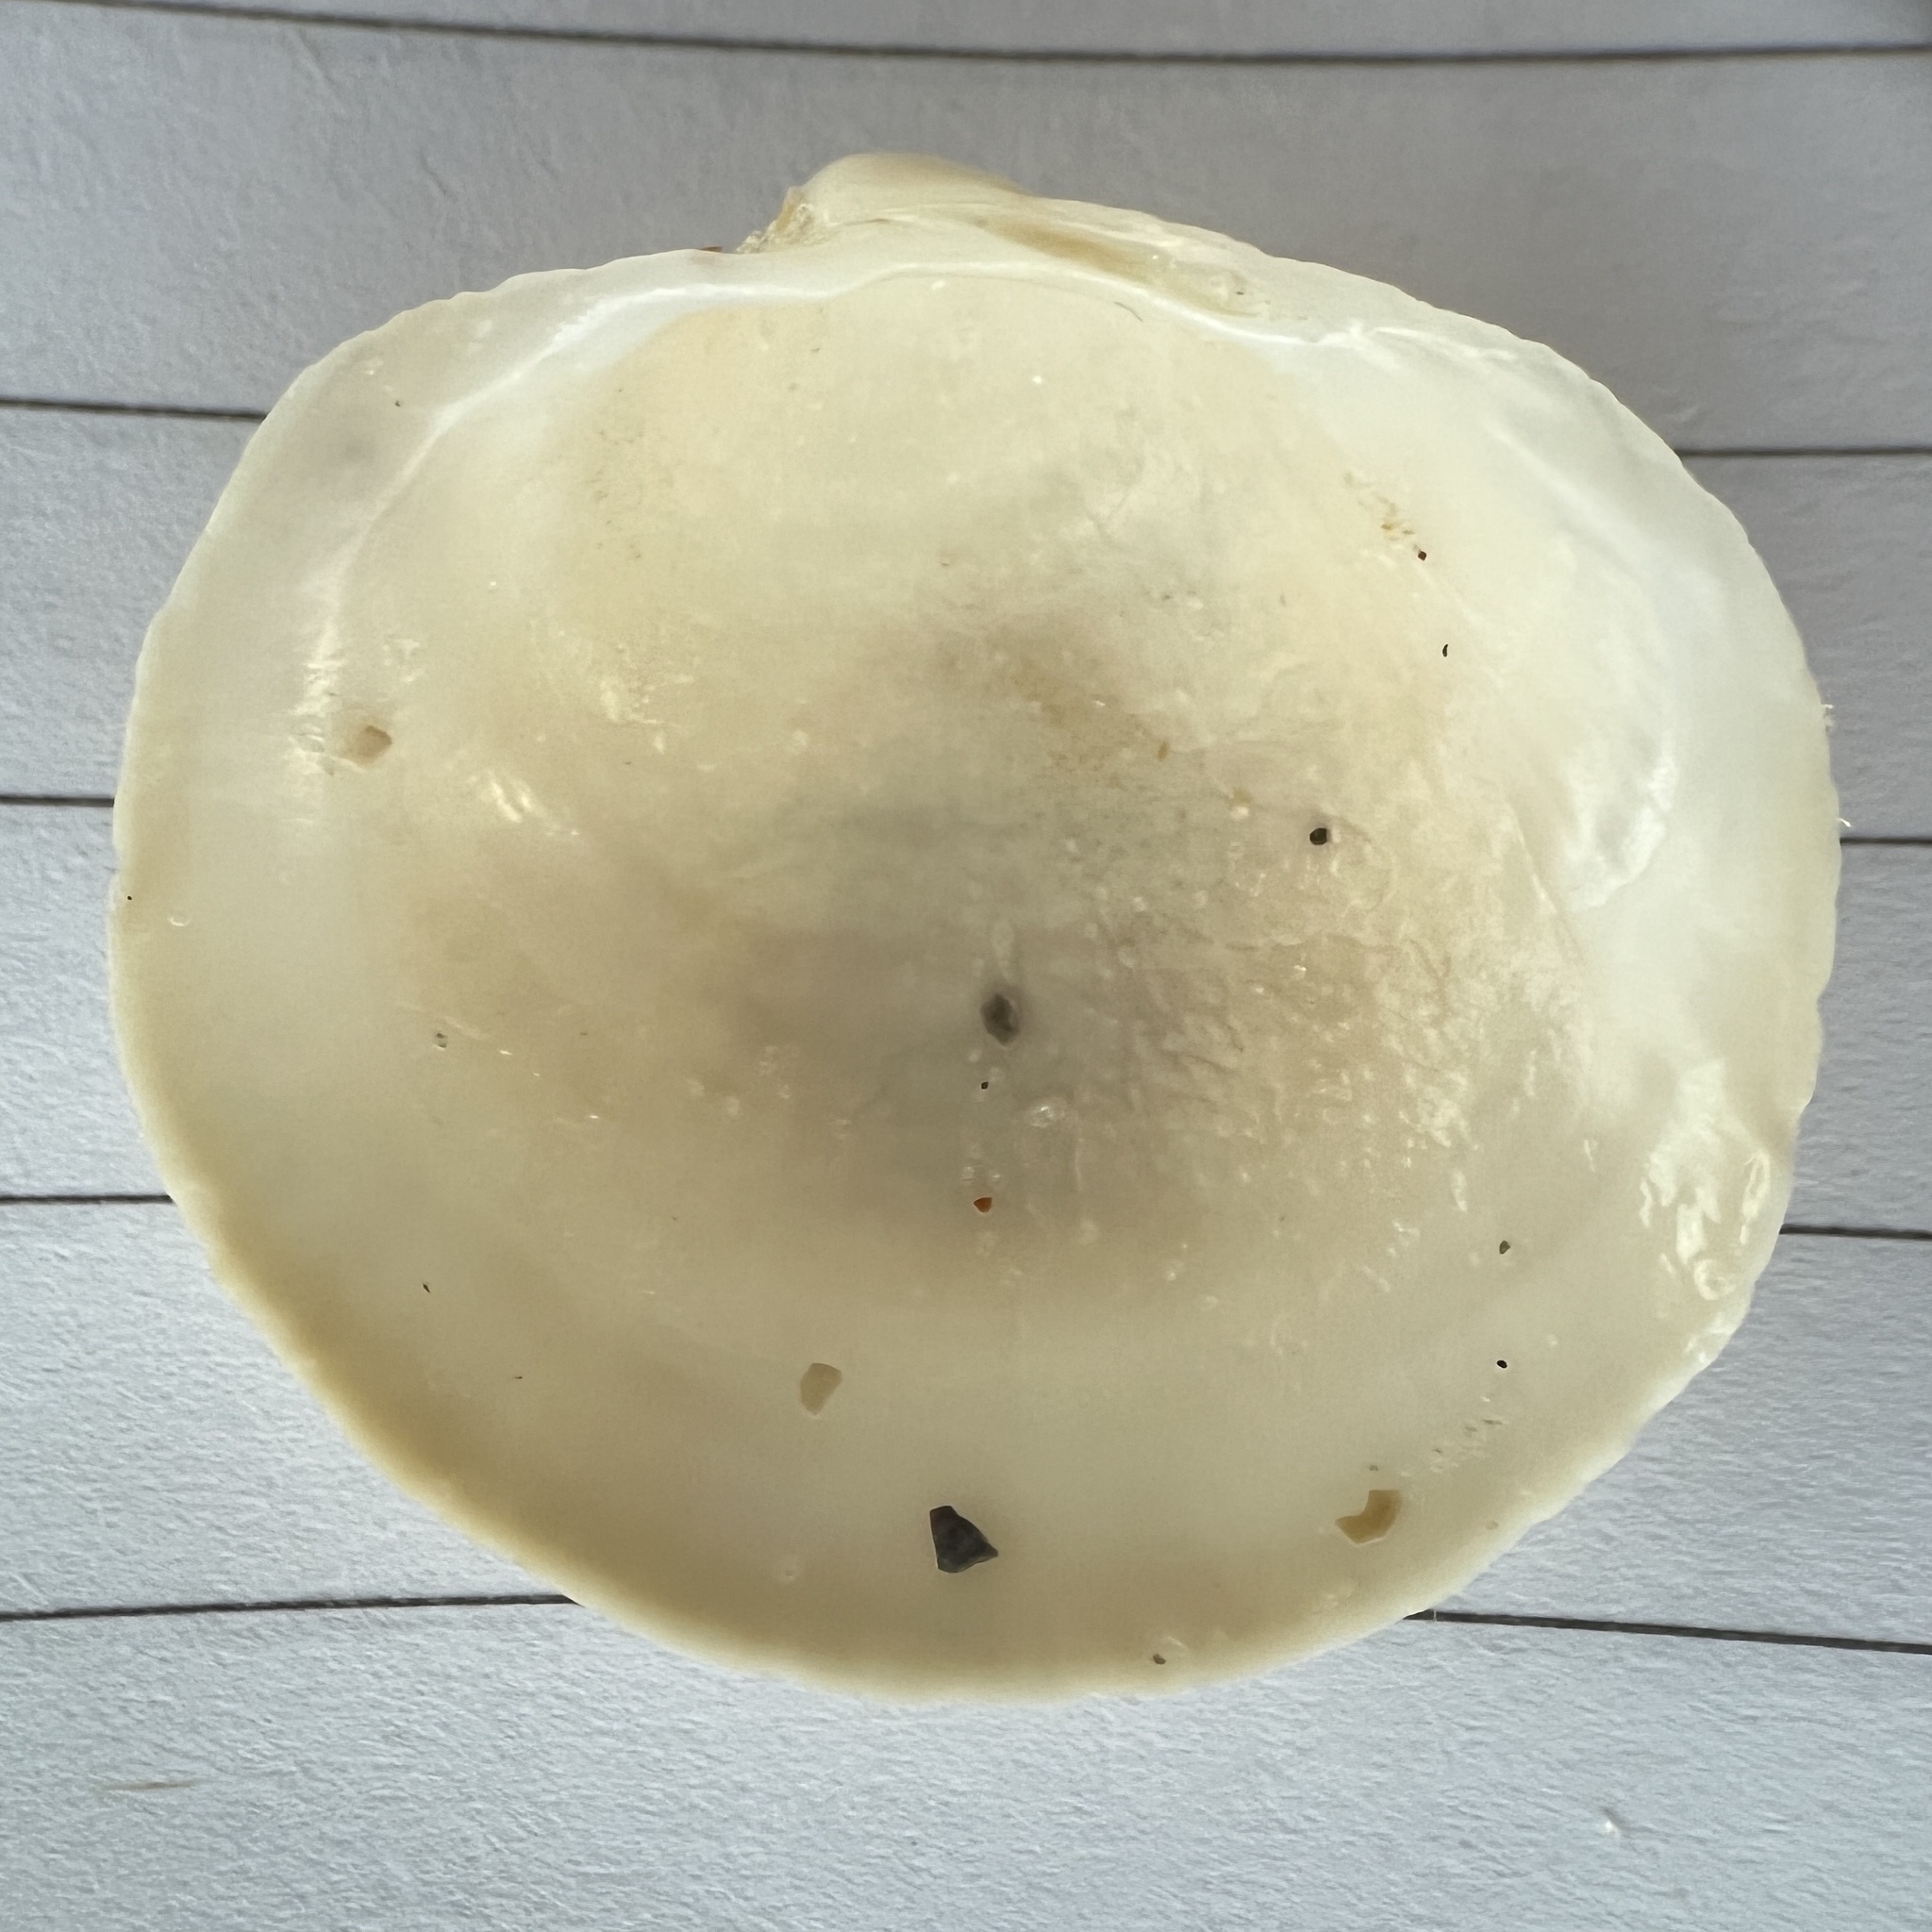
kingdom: Animalia
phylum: Mollusca
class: Bivalvia
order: Lucinida
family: Lucinidae
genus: Pegophysema
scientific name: Pegophysema schrammi
